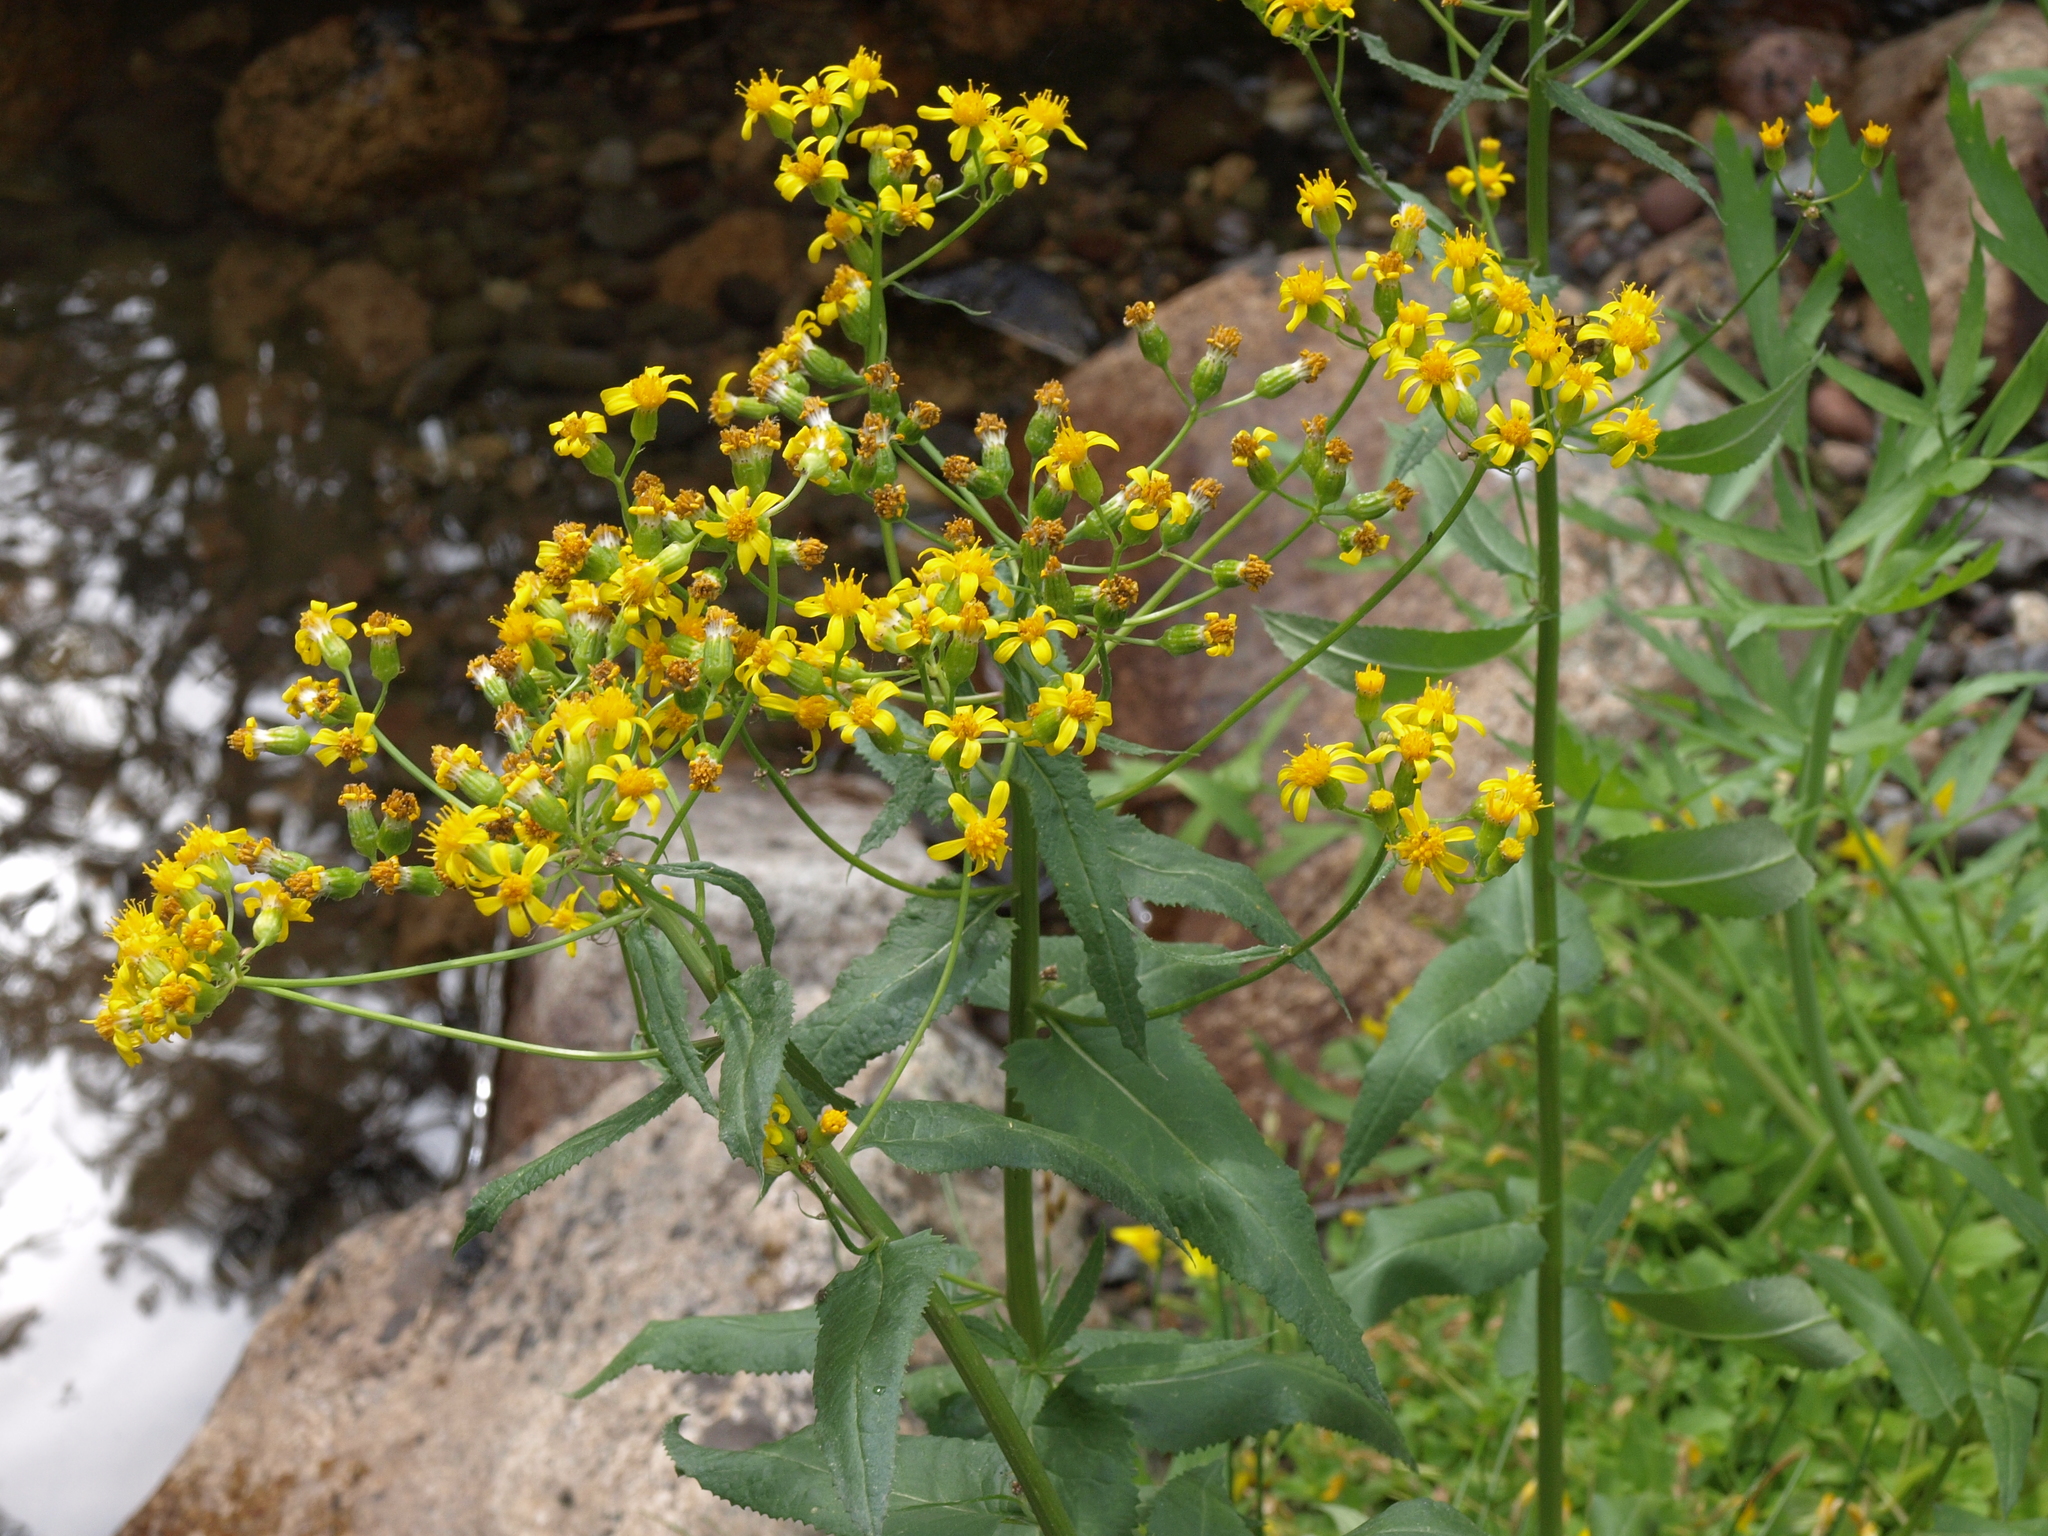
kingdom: Plantae
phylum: Tracheophyta
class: Magnoliopsida
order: Asterales
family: Asteraceae
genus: Senecio
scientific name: Senecio triangularis
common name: Arrowleaf butterweed
